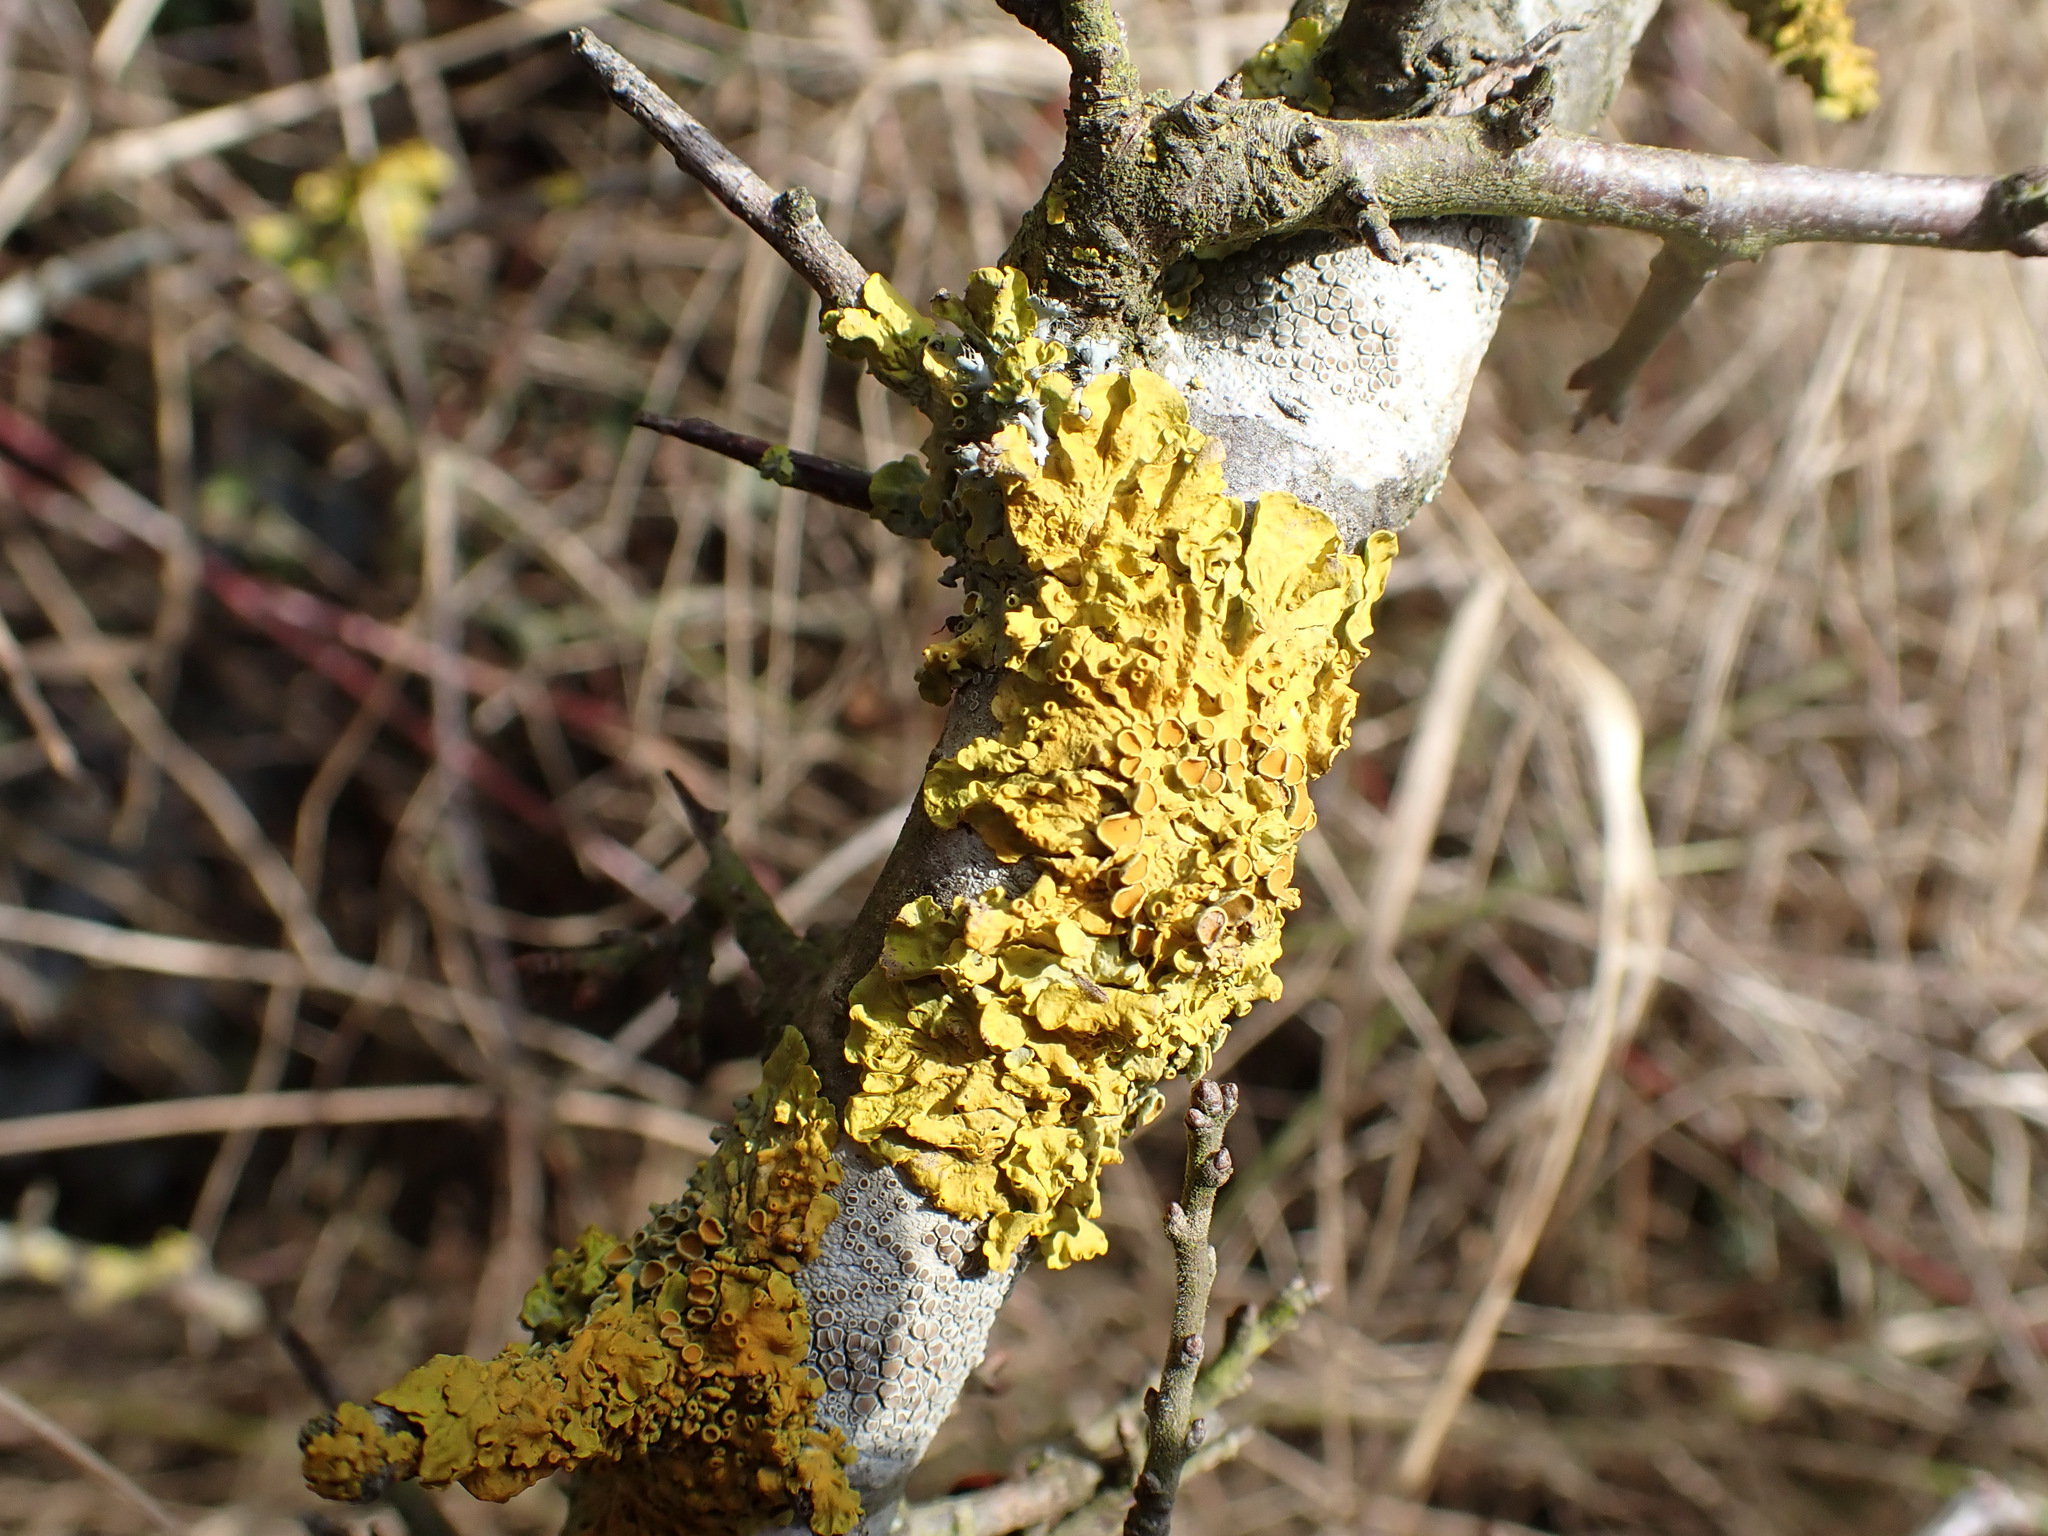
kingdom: Fungi
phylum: Ascomycota
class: Lecanoromycetes
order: Teloschistales
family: Teloschistaceae
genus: Xanthoria
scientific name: Xanthoria parietina
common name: Common orange lichen
